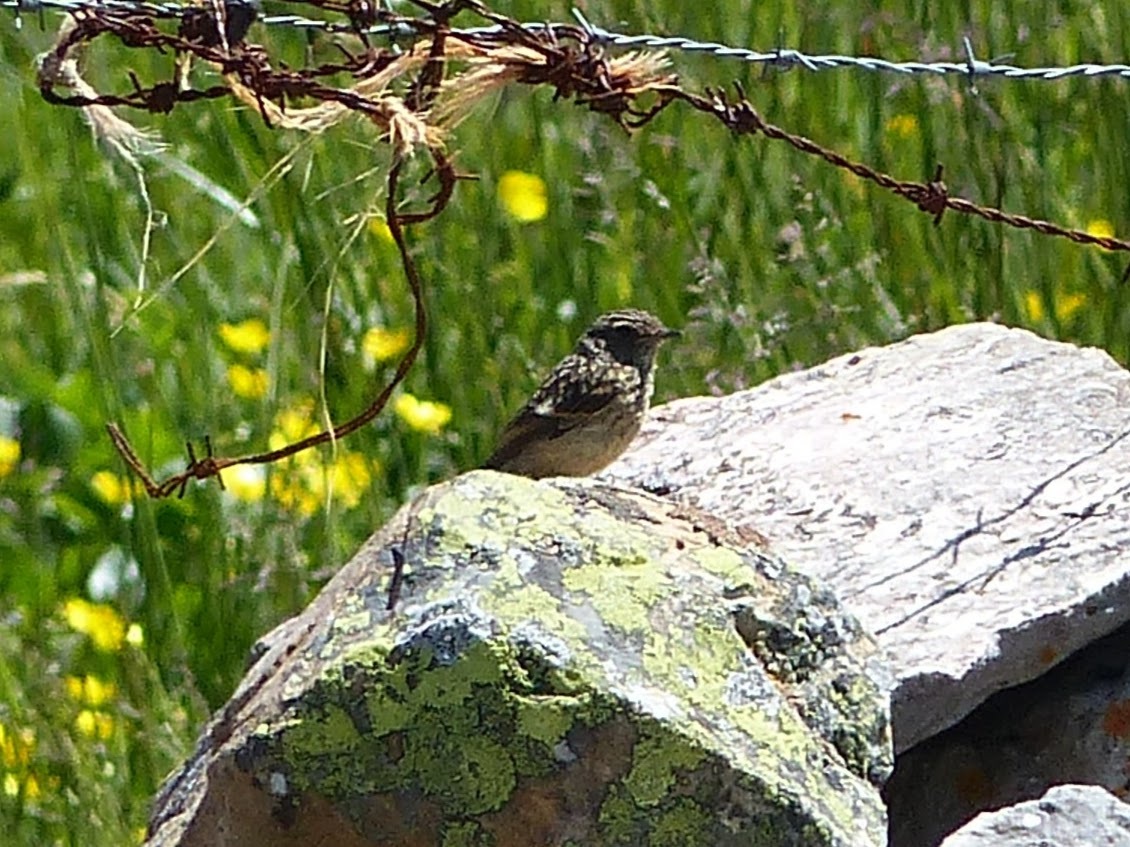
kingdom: Animalia
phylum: Chordata
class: Aves
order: Passeriformes
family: Muscicapidae
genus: Saxicola
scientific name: Saxicola rubicola
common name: European stonechat
